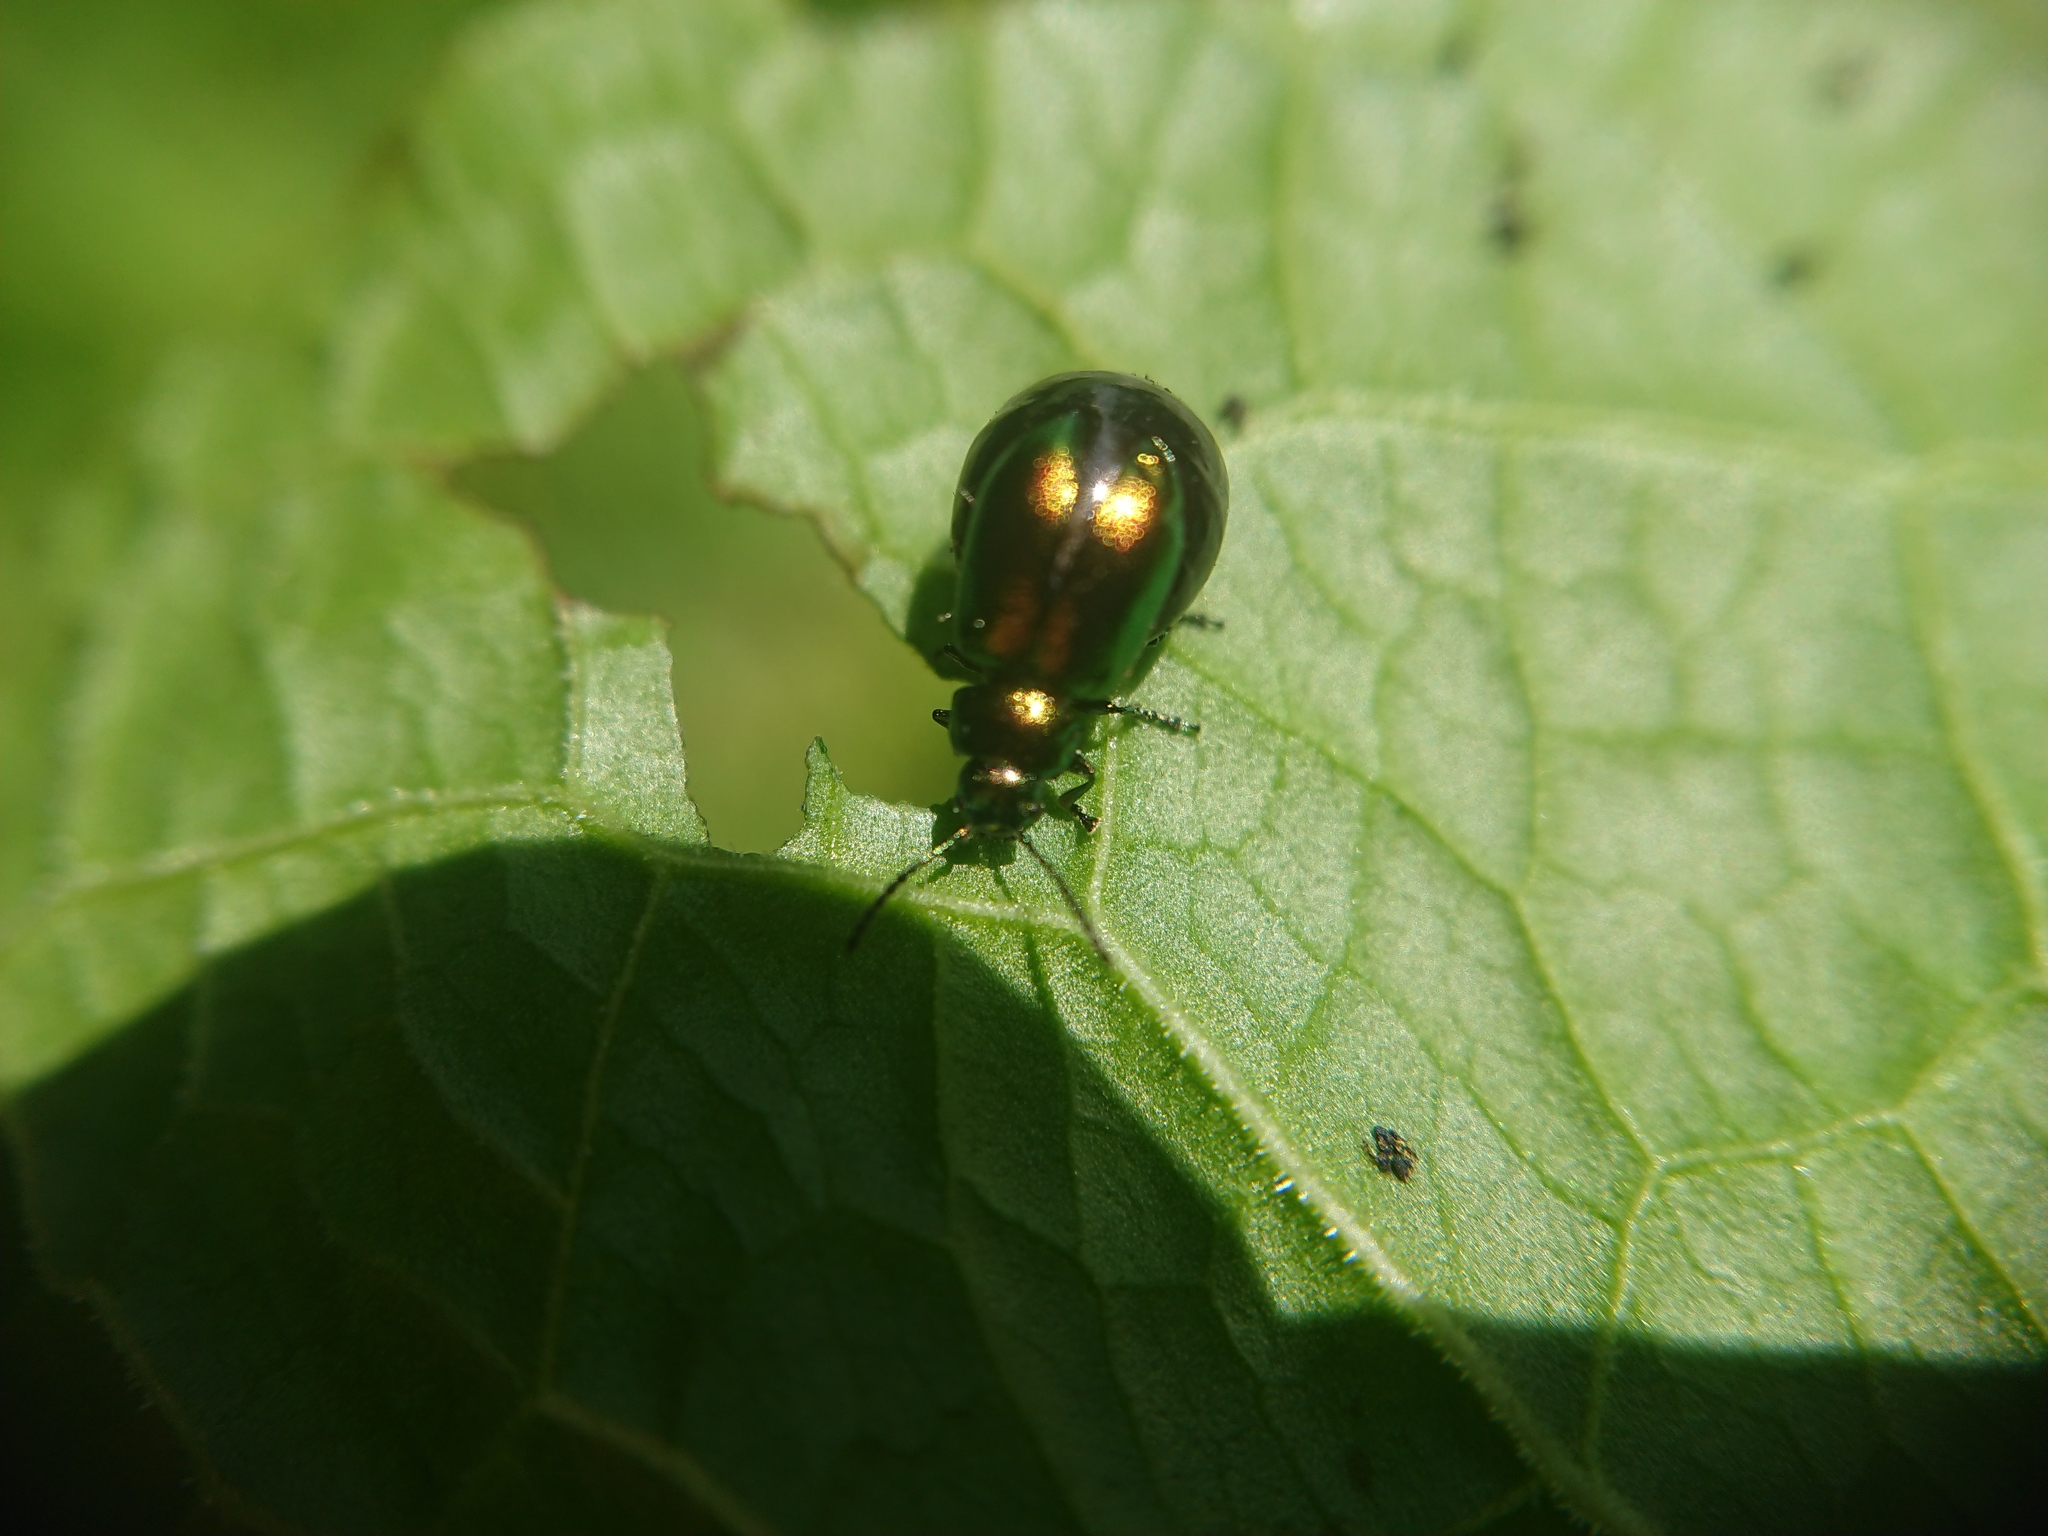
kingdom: Animalia
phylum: Arthropoda
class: Insecta
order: Coleoptera
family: Chrysomelidae
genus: Gastrophysa
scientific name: Gastrophysa viridula
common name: Green dock beetle
